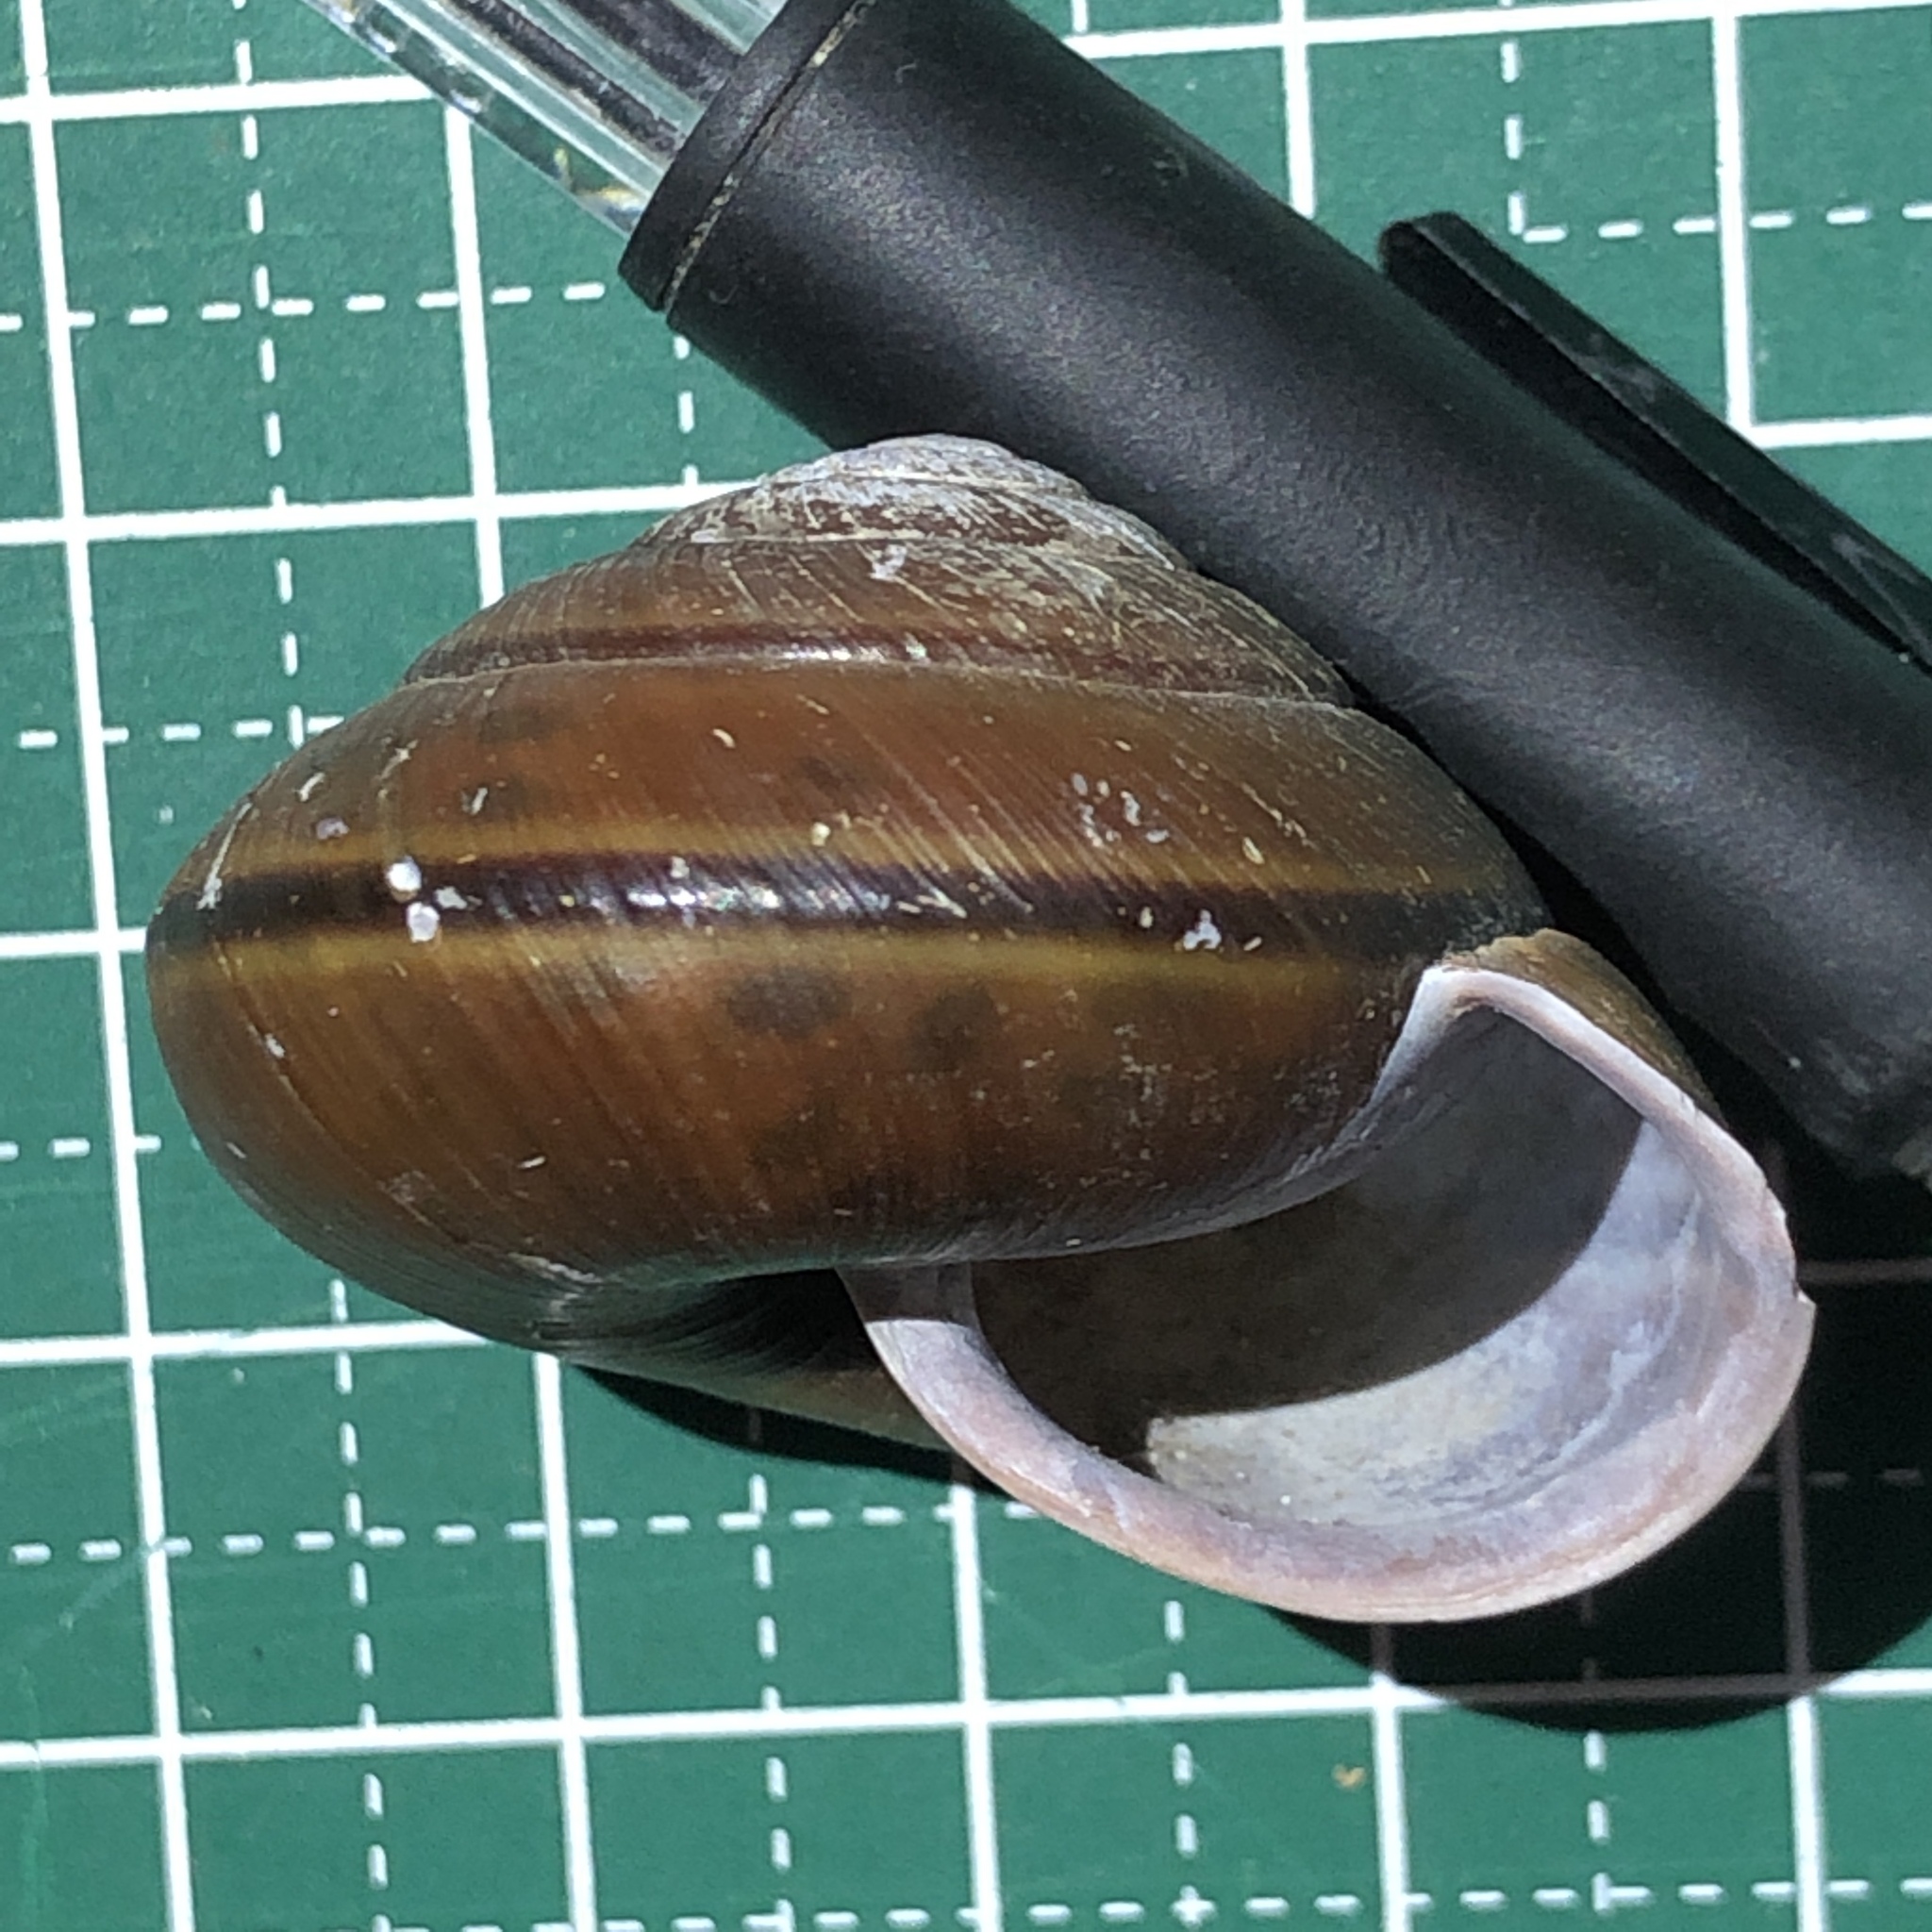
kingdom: Animalia
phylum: Mollusca
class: Gastropoda
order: Stylommatophora
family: Camaenidae
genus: Satsuma
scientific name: Satsuma mercatoria
